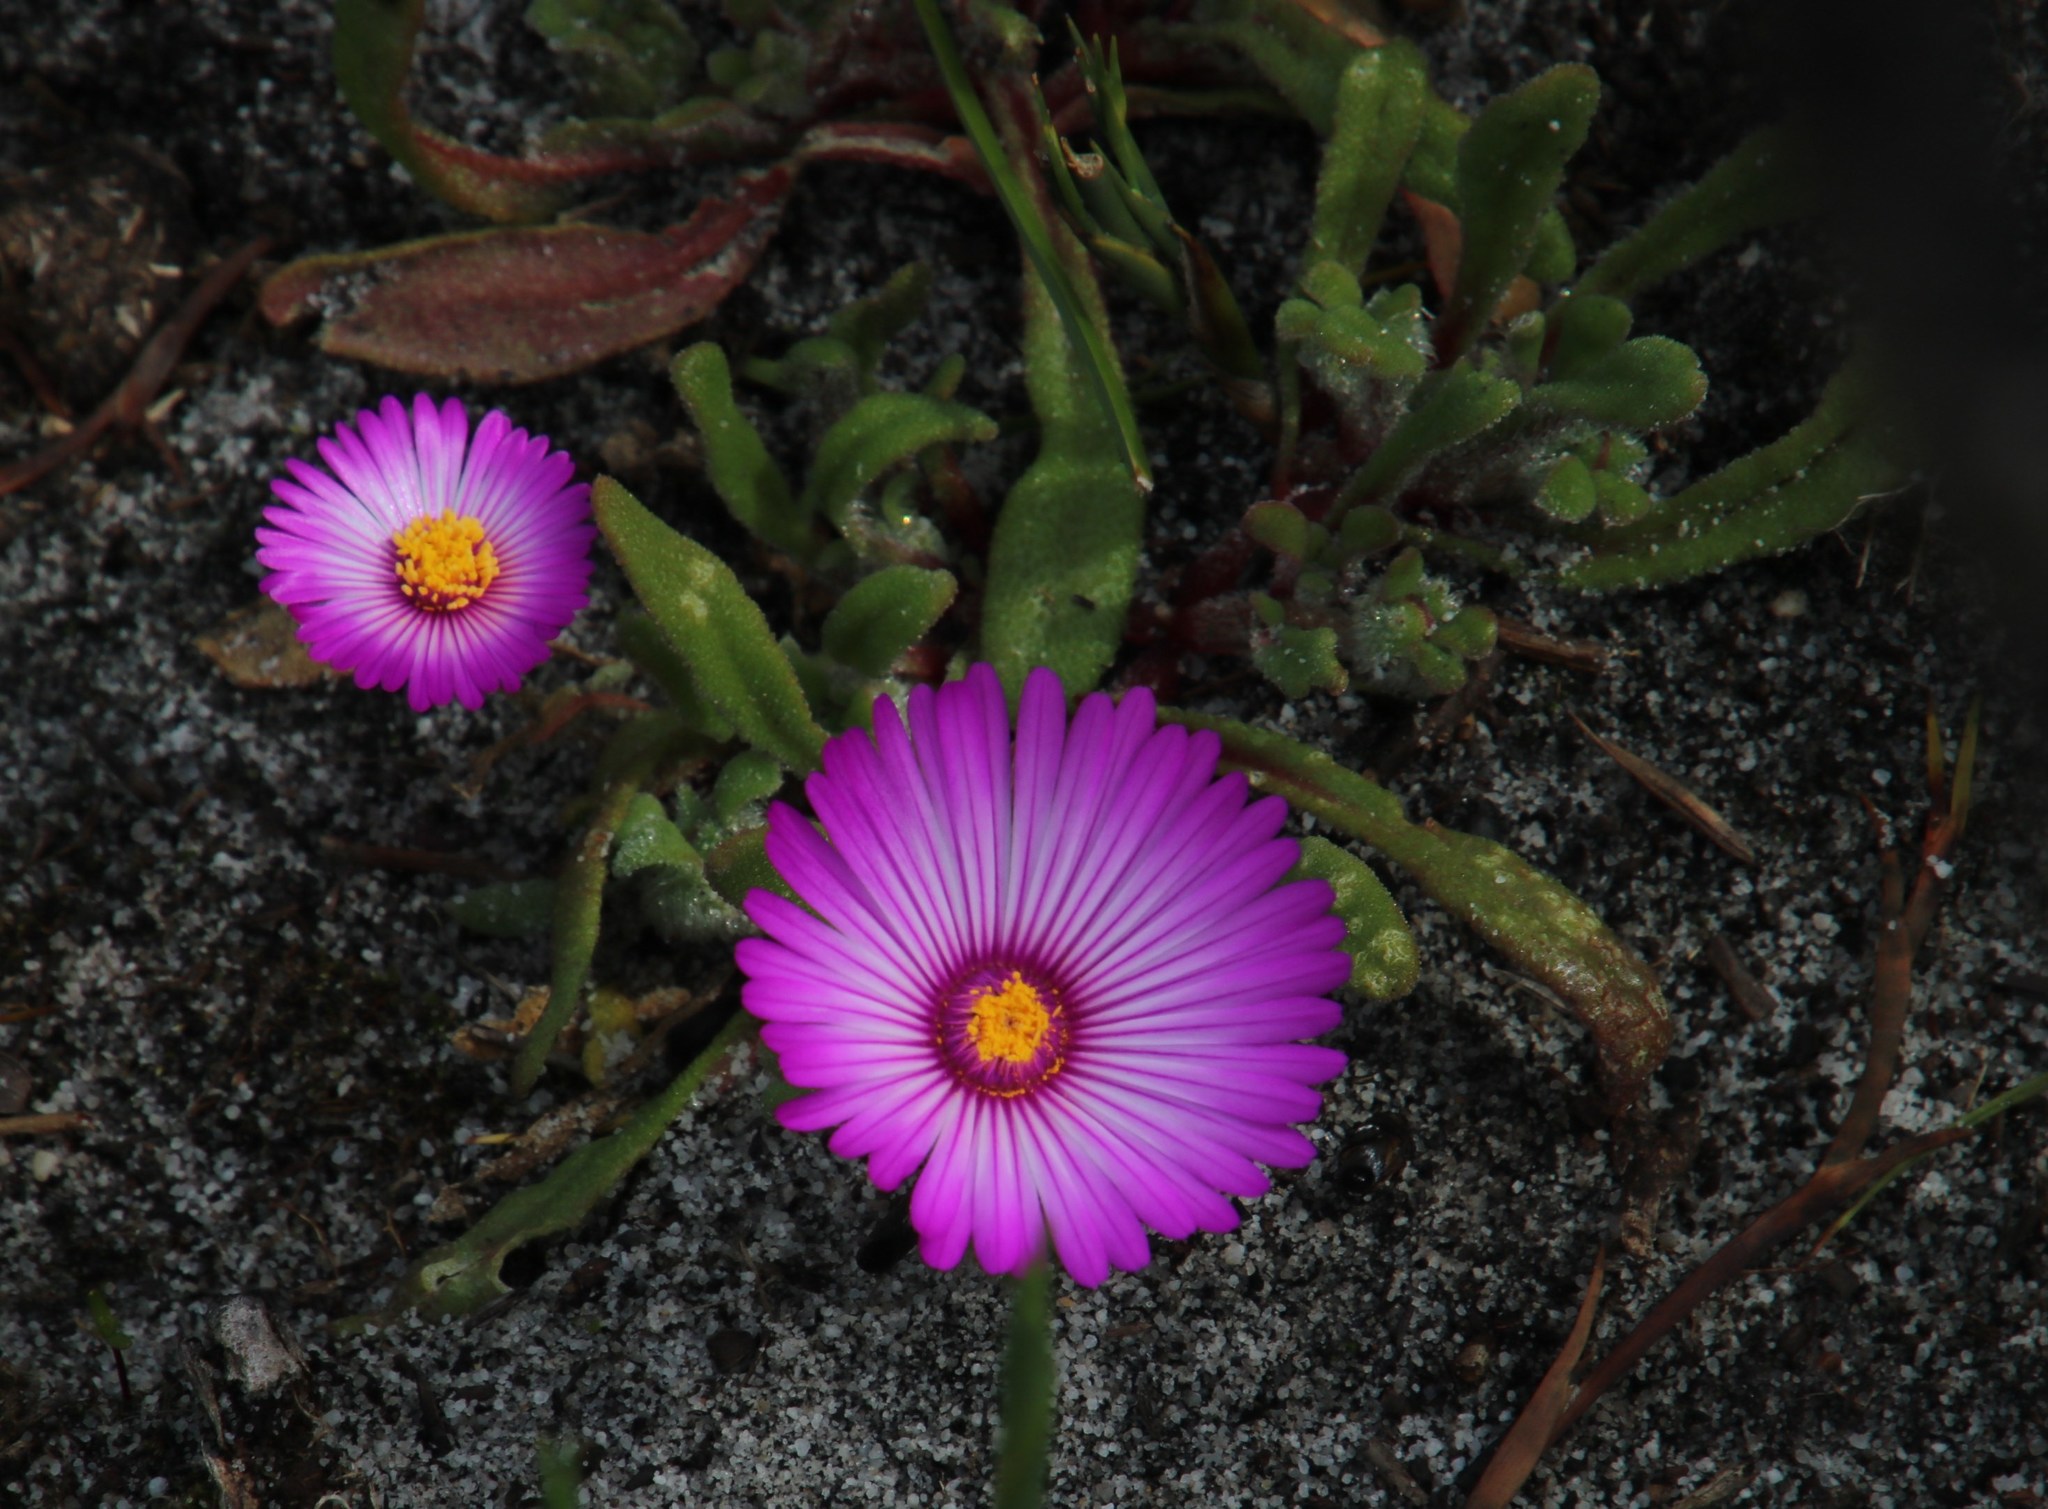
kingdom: Plantae
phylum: Tracheophyta
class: Magnoliopsida
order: Caryophyllales
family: Aizoaceae
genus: Cleretum
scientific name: Cleretum bellidiforme
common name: Livingstone daisy
